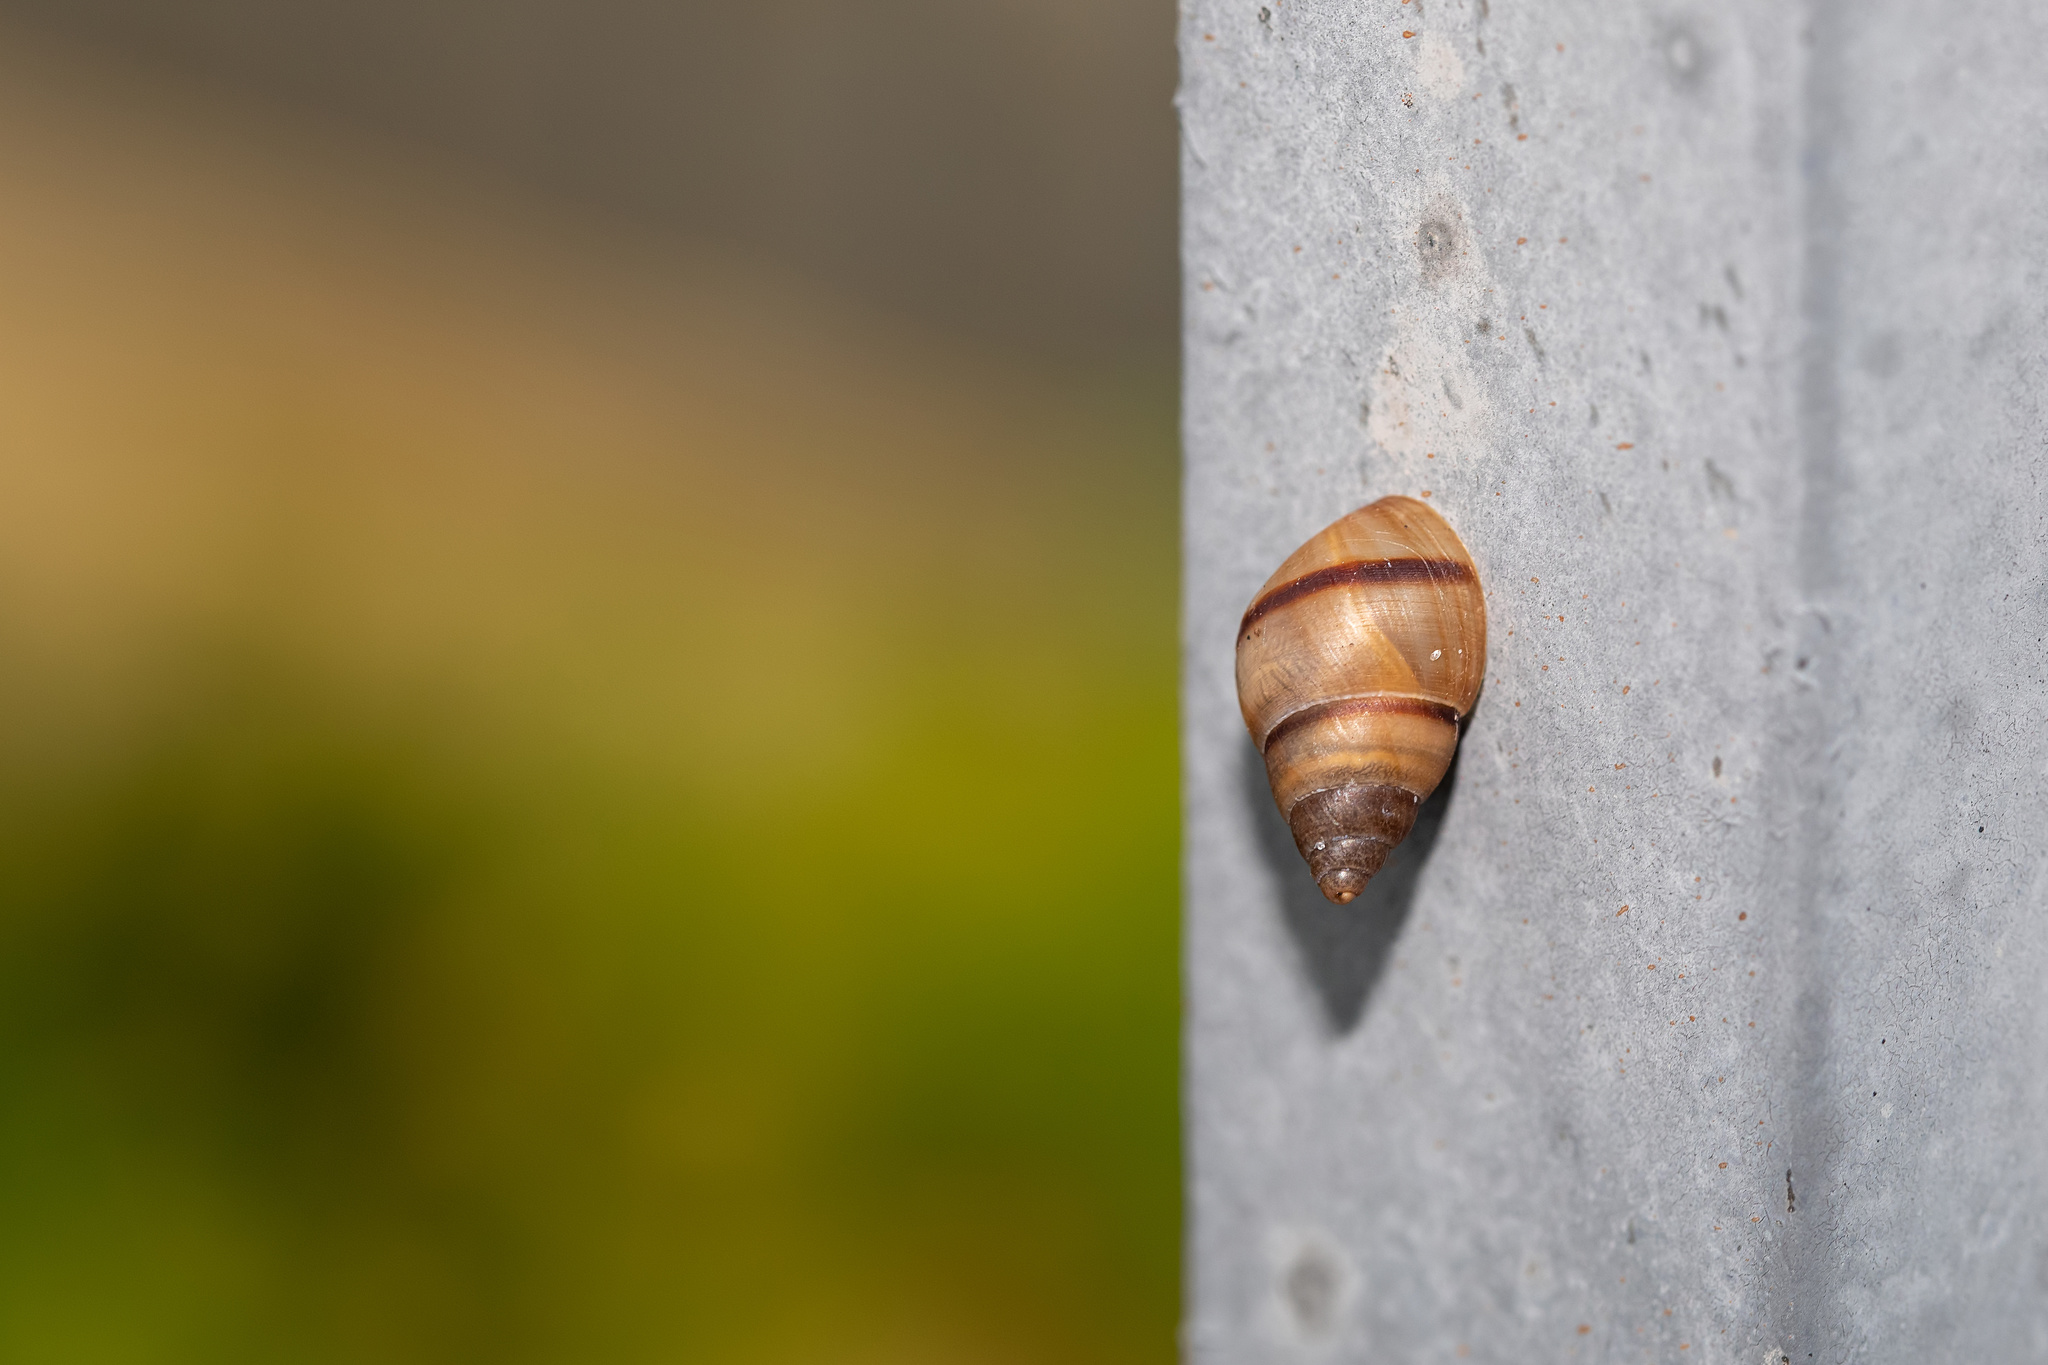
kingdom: Animalia
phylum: Mollusca
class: Gastropoda
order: Stylommatophora
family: Bulimulidae
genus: Bulimulus
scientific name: Bulimulus guadalupensis
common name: West indian bulimulus
